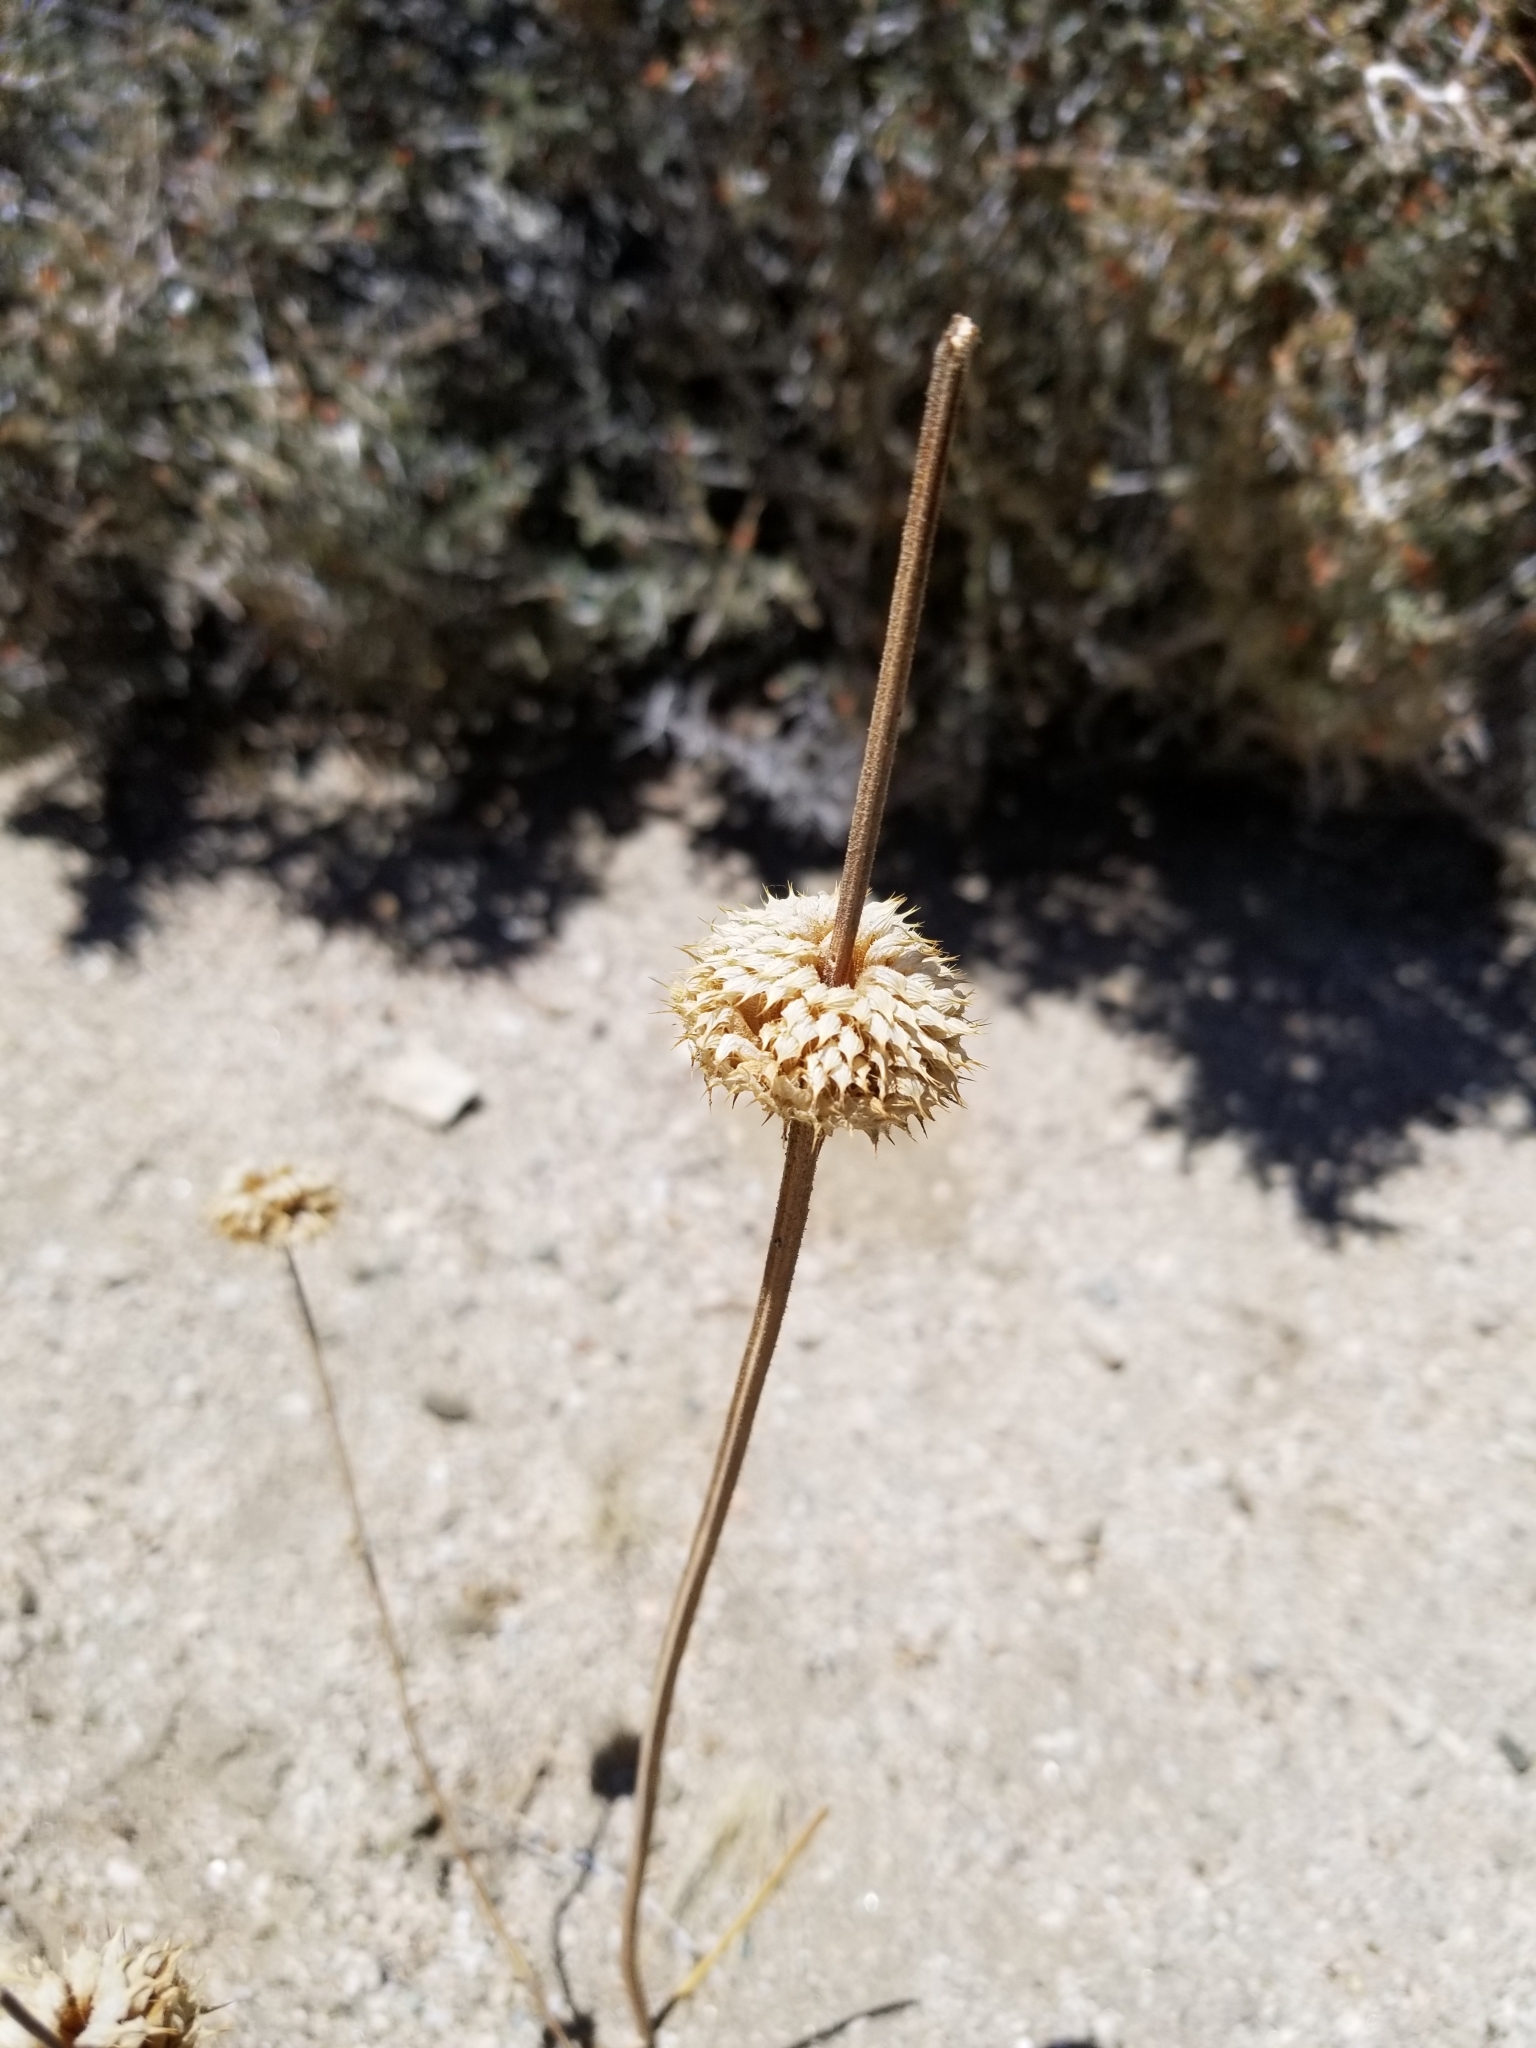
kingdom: Plantae
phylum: Tracheophyta
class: Magnoliopsida
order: Lamiales
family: Lamiaceae
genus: Salvia
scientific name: Salvia columbariae
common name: Chia
